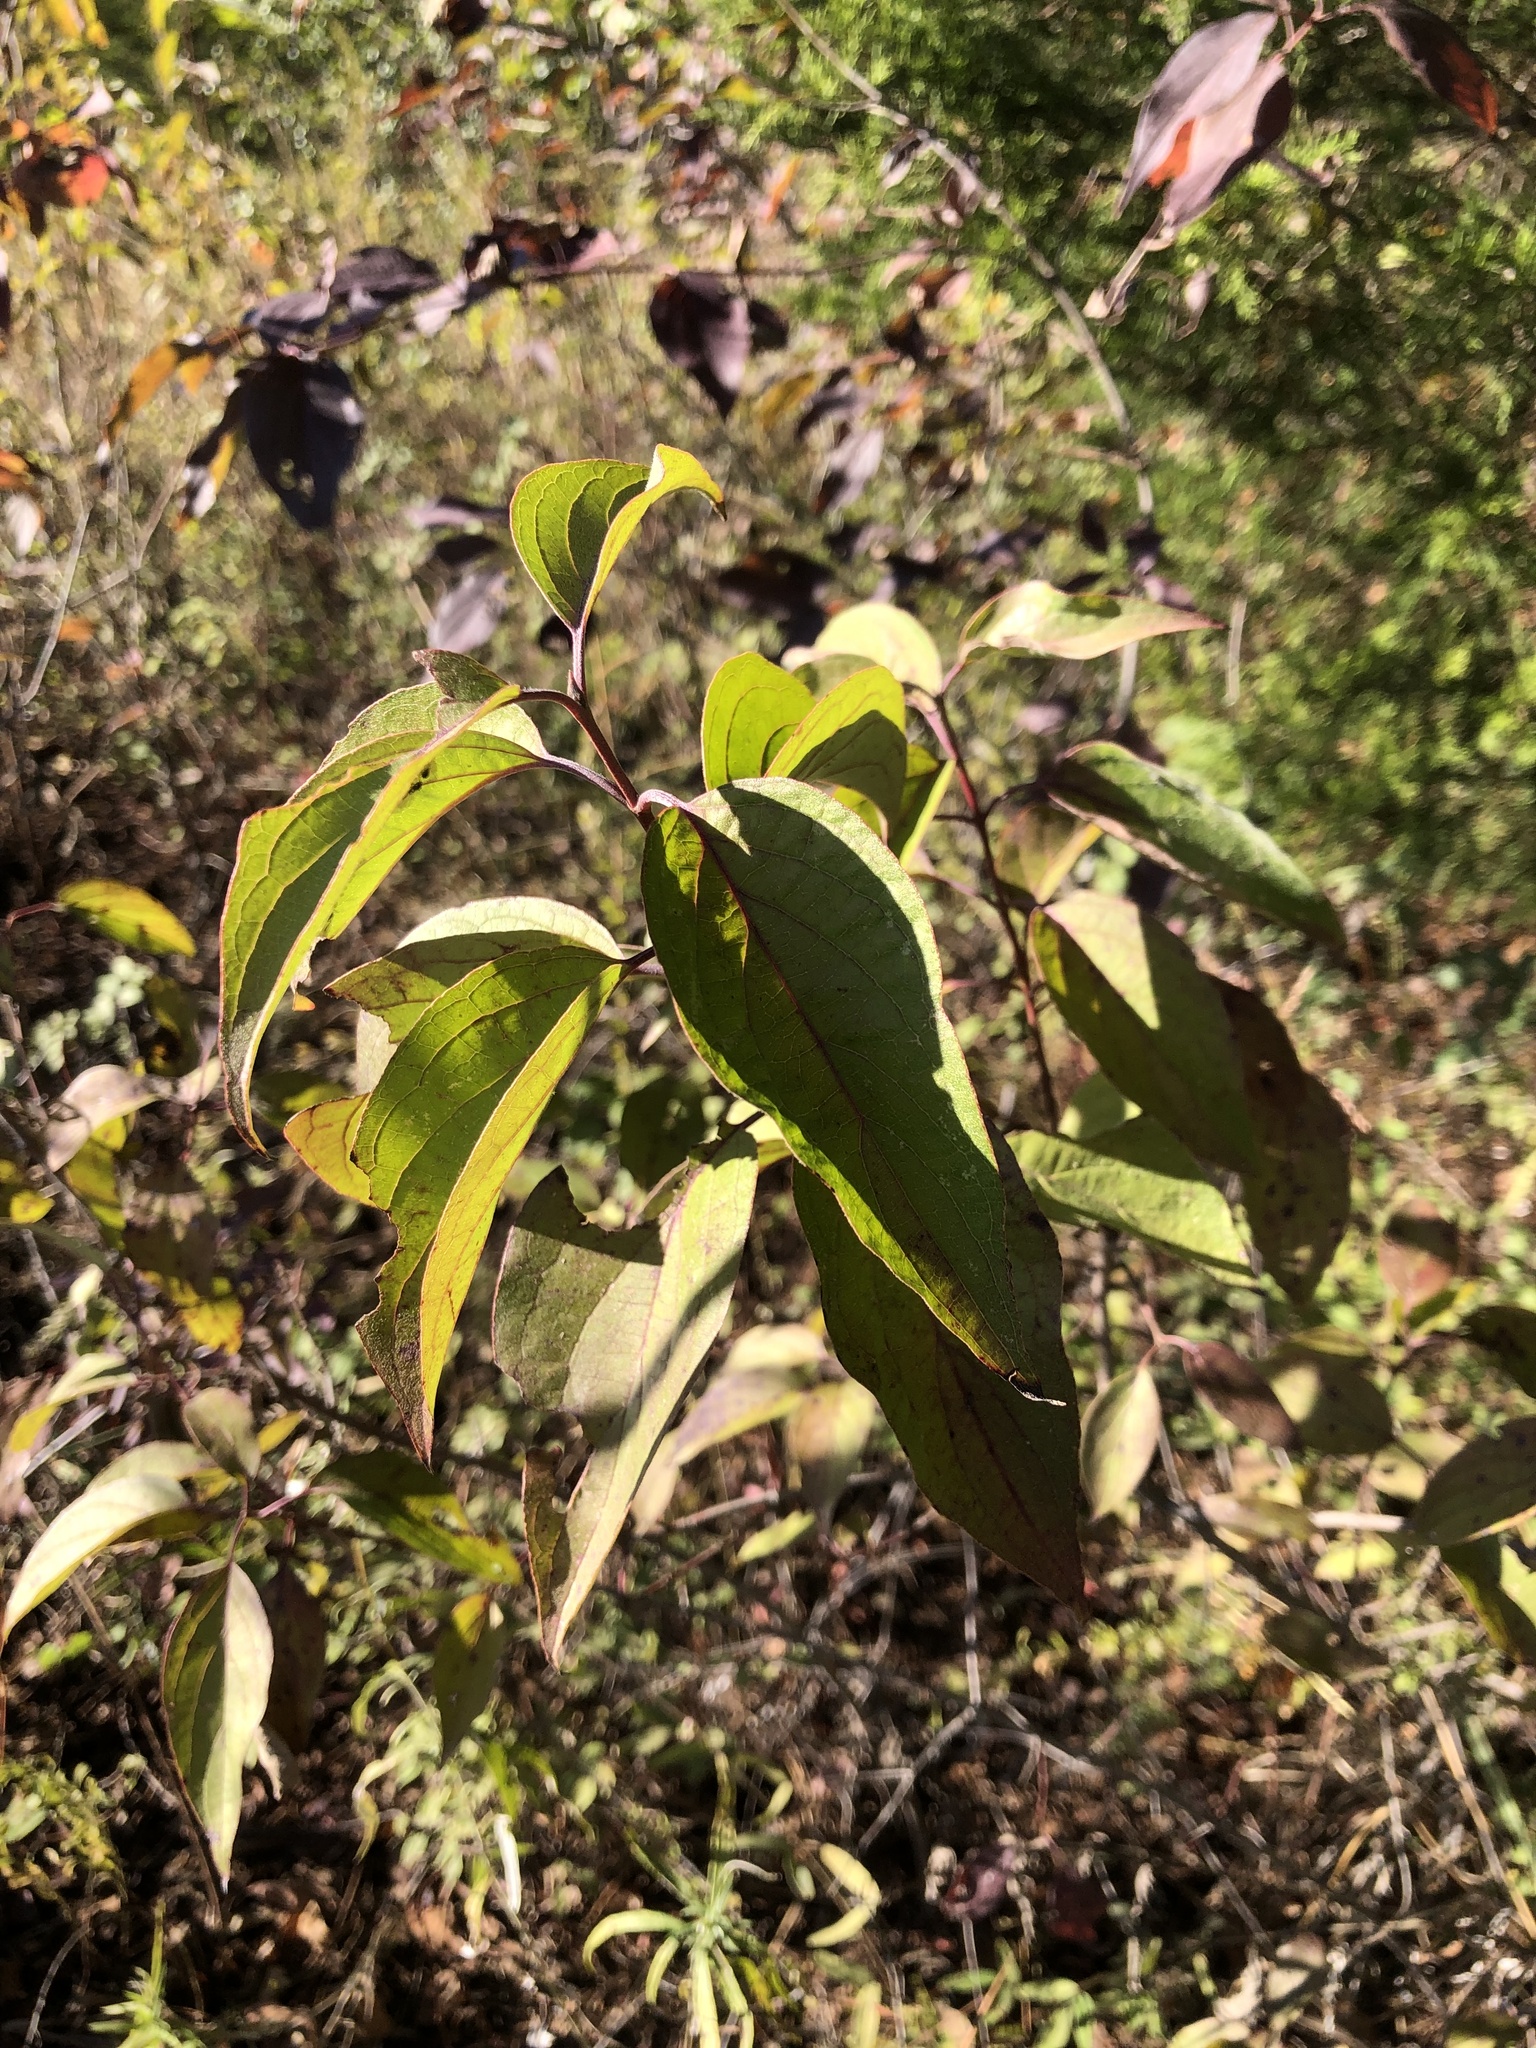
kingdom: Plantae
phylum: Tracheophyta
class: Magnoliopsida
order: Cornales
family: Cornaceae
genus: Cornus
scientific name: Cornus drummondii
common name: Rough-leaf dogwood
